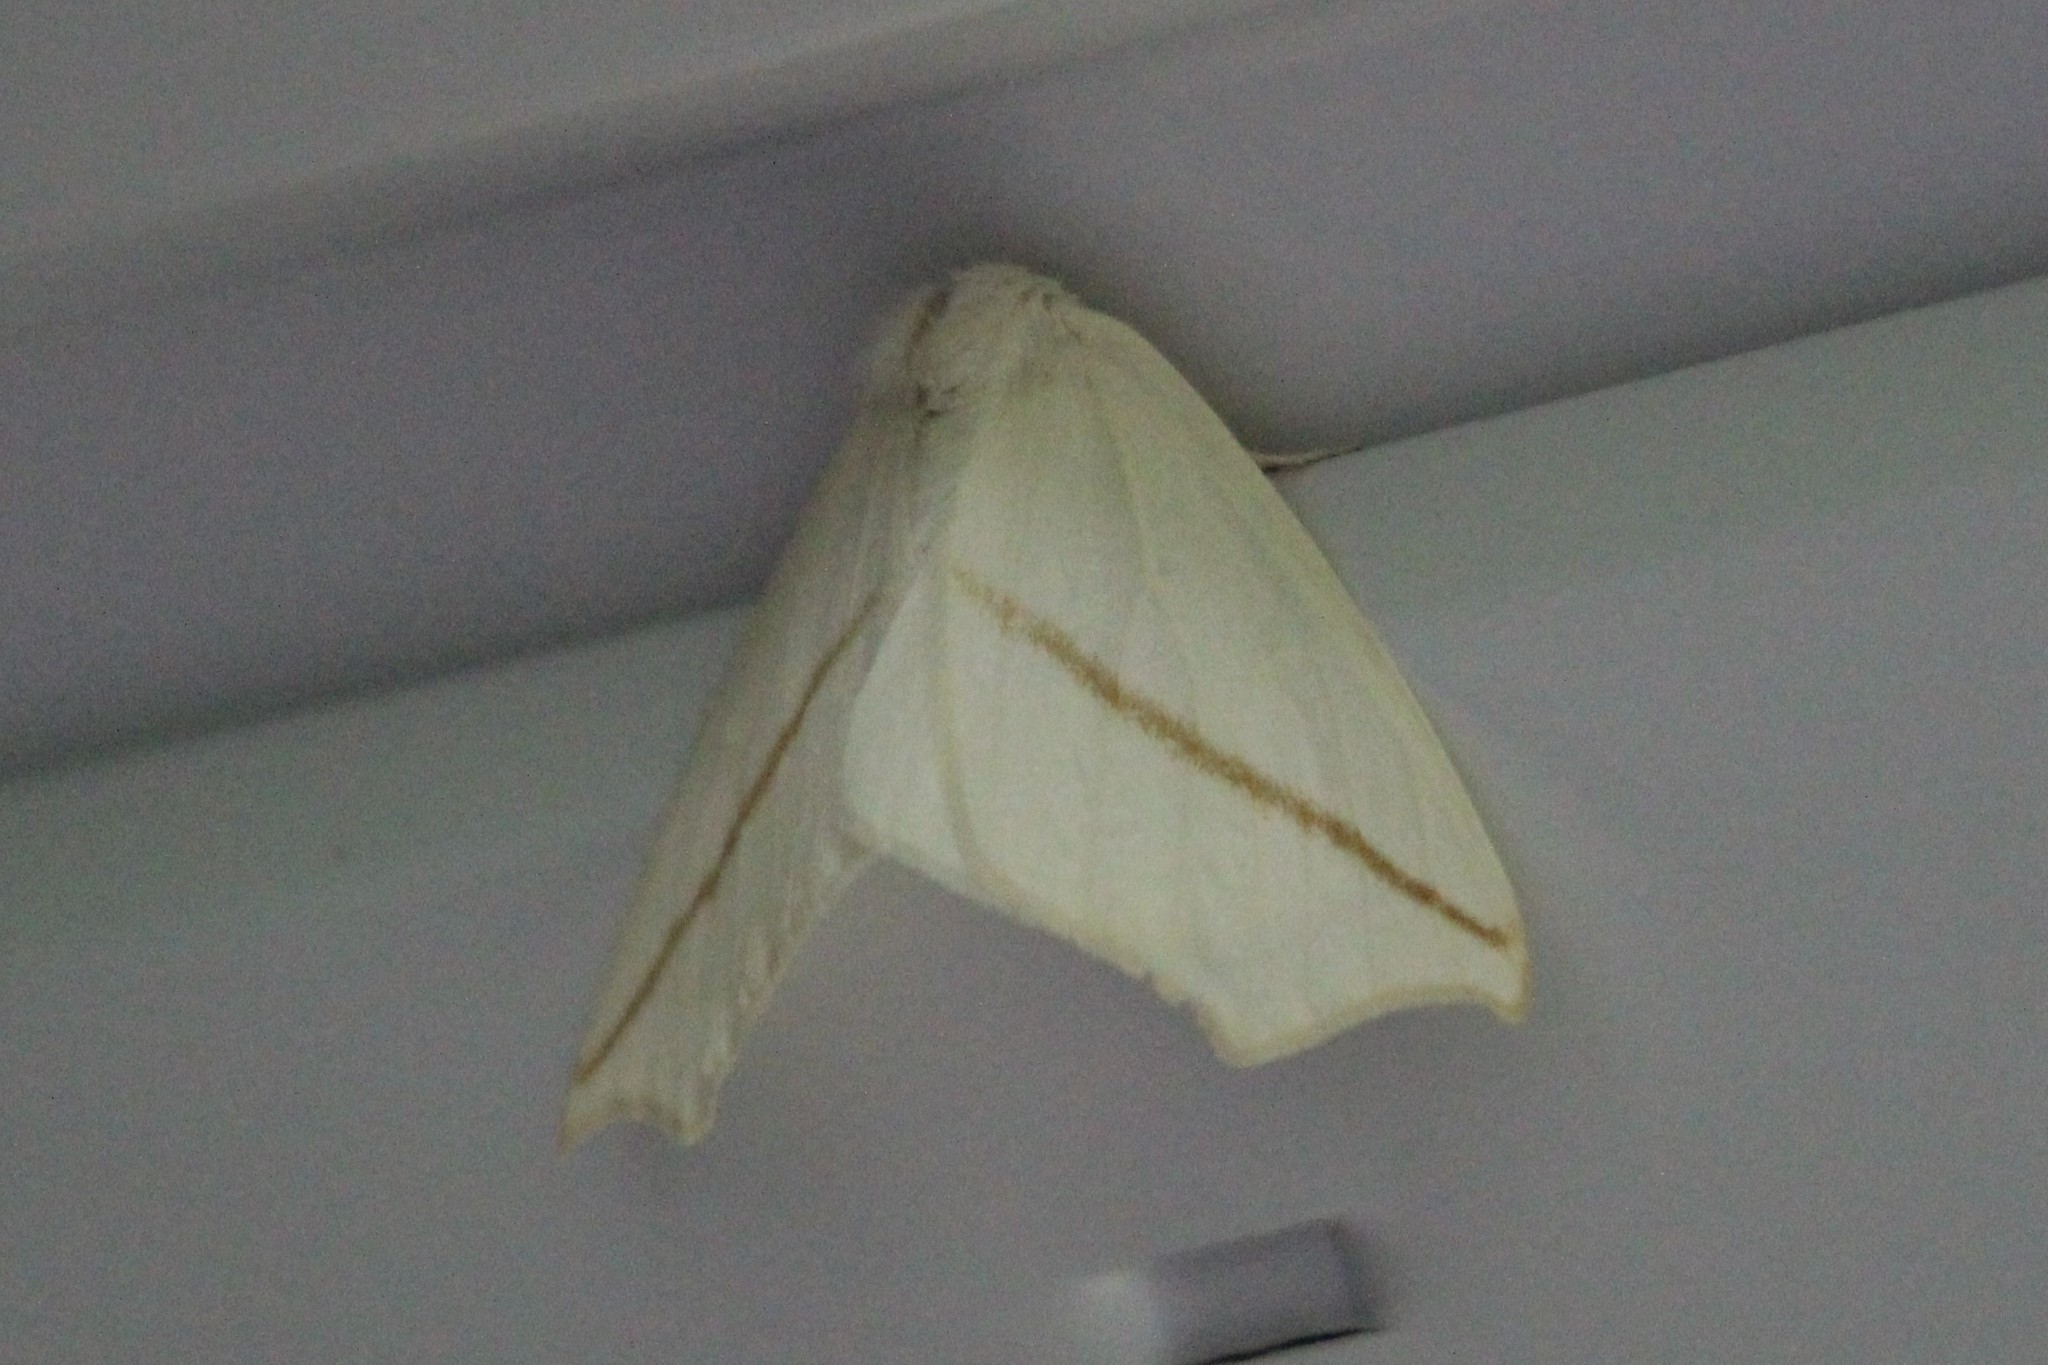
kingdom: Animalia
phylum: Arthropoda
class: Insecta
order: Lepidoptera
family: Geometridae
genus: Tetracis
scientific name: Tetracis cachexiata
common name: White slant-line
